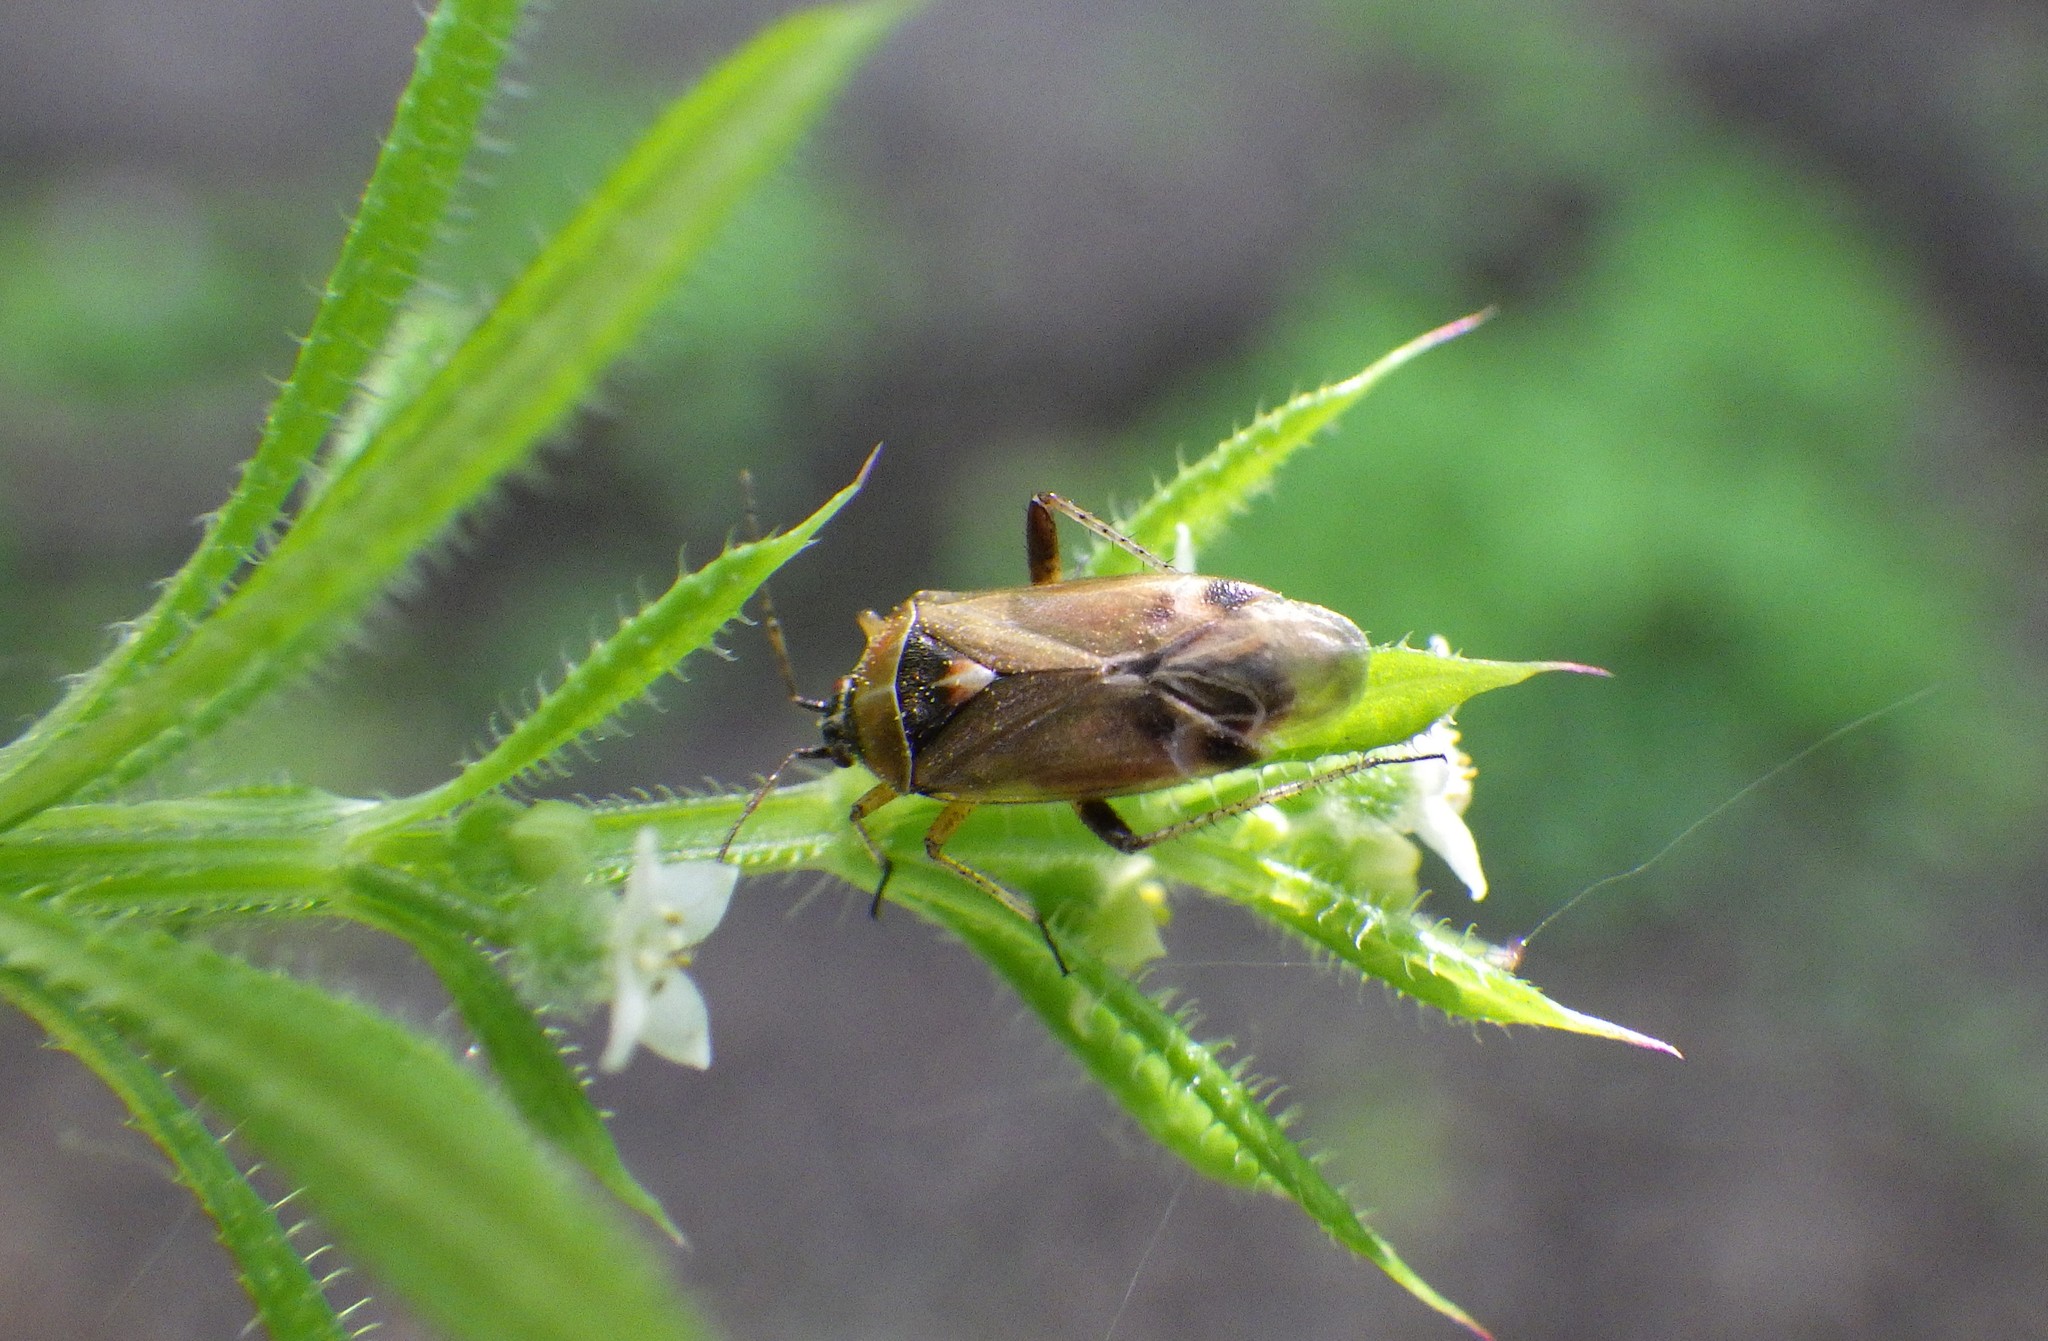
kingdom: Animalia
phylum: Arthropoda
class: Insecta
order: Hemiptera
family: Miridae
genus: Harpocera
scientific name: Harpocera thoracica
